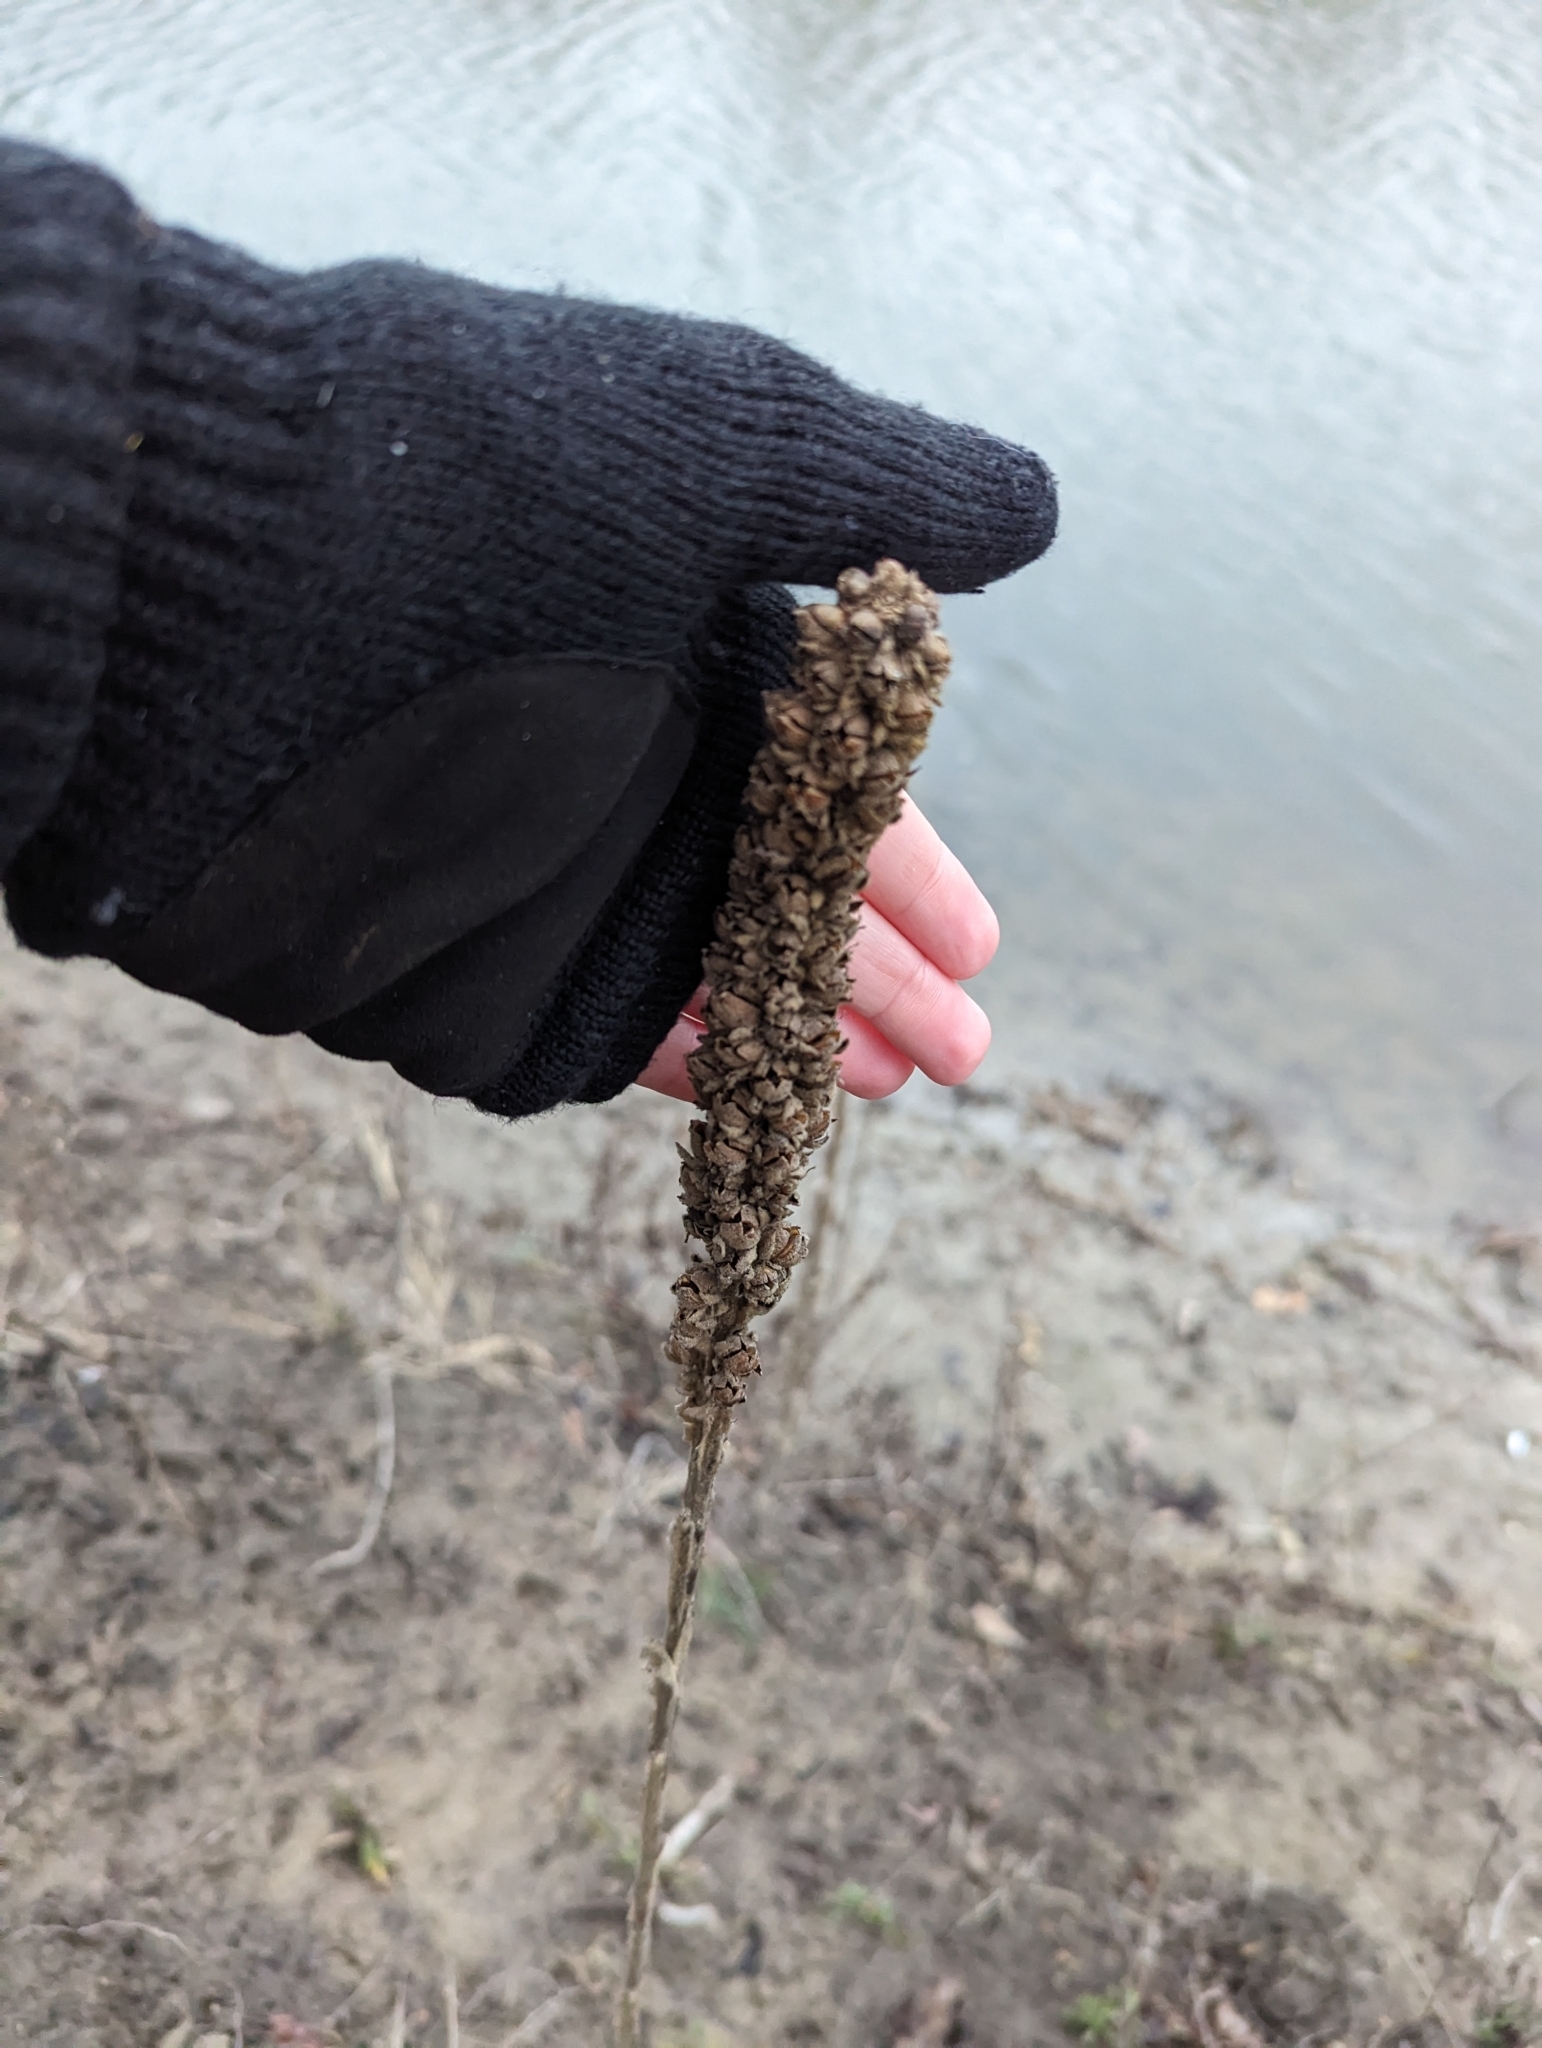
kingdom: Plantae
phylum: Tracheophyta
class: Magnoliopsida
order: Lamiales
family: Scrophulariaceae
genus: Verbascum
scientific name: Verbascum thapsus
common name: Common mullein
